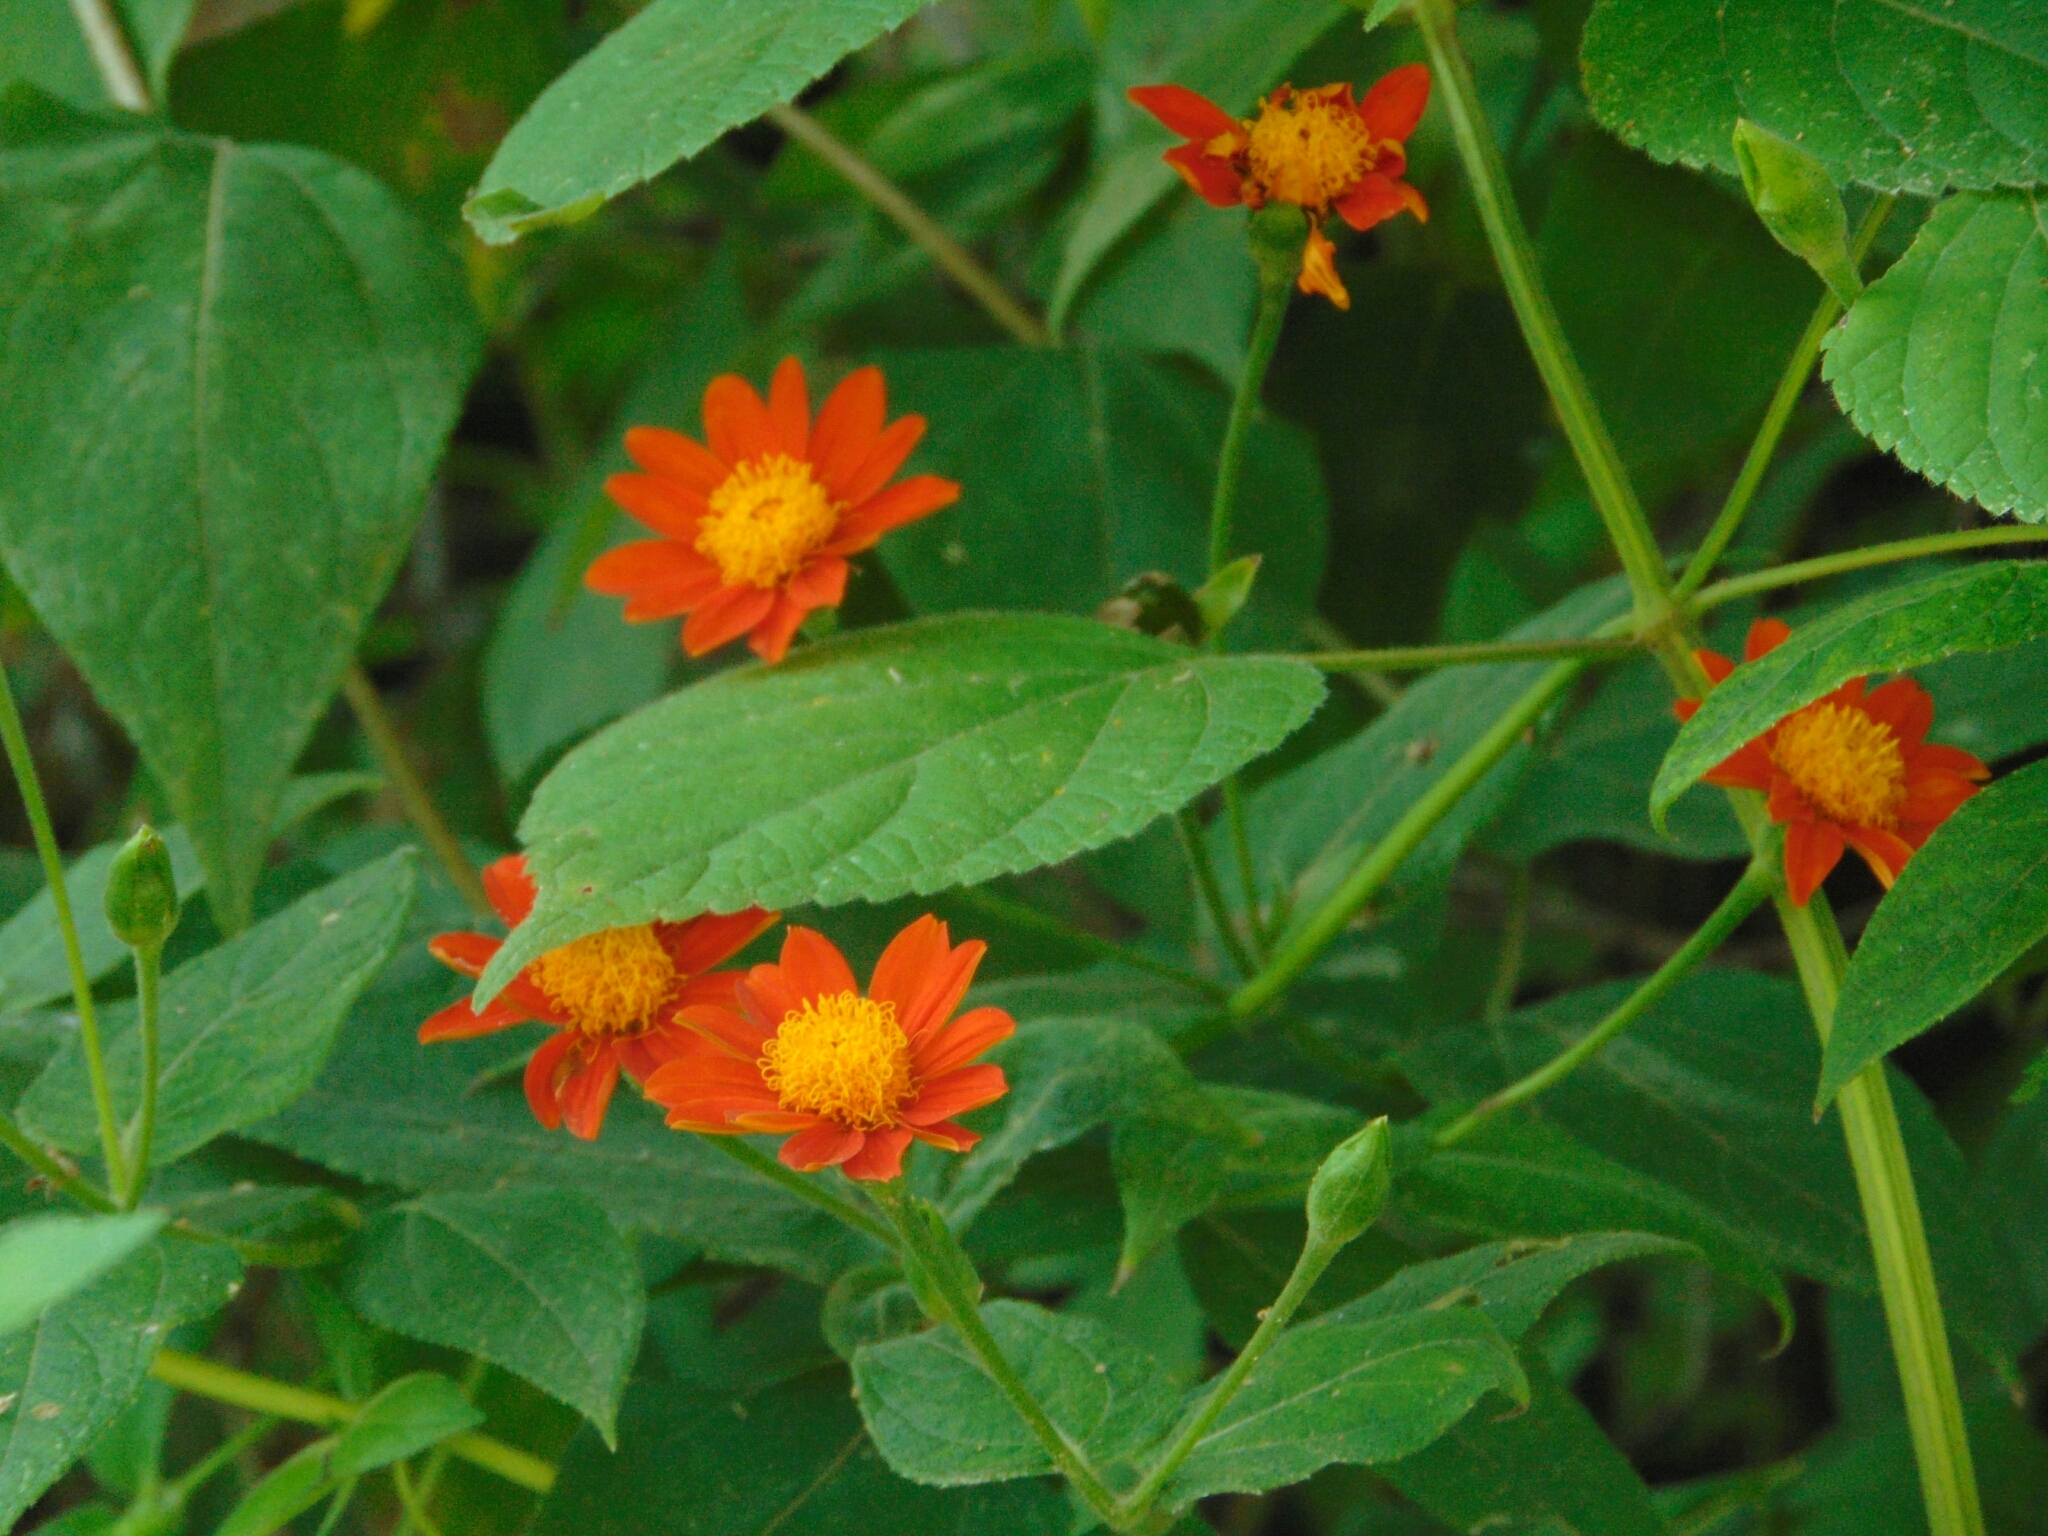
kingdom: Plantae
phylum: Tracheophyta
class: Magnoliopsida
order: Asterales
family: Asteraceae
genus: Lasianthaea
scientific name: Lasianthaea crocea
